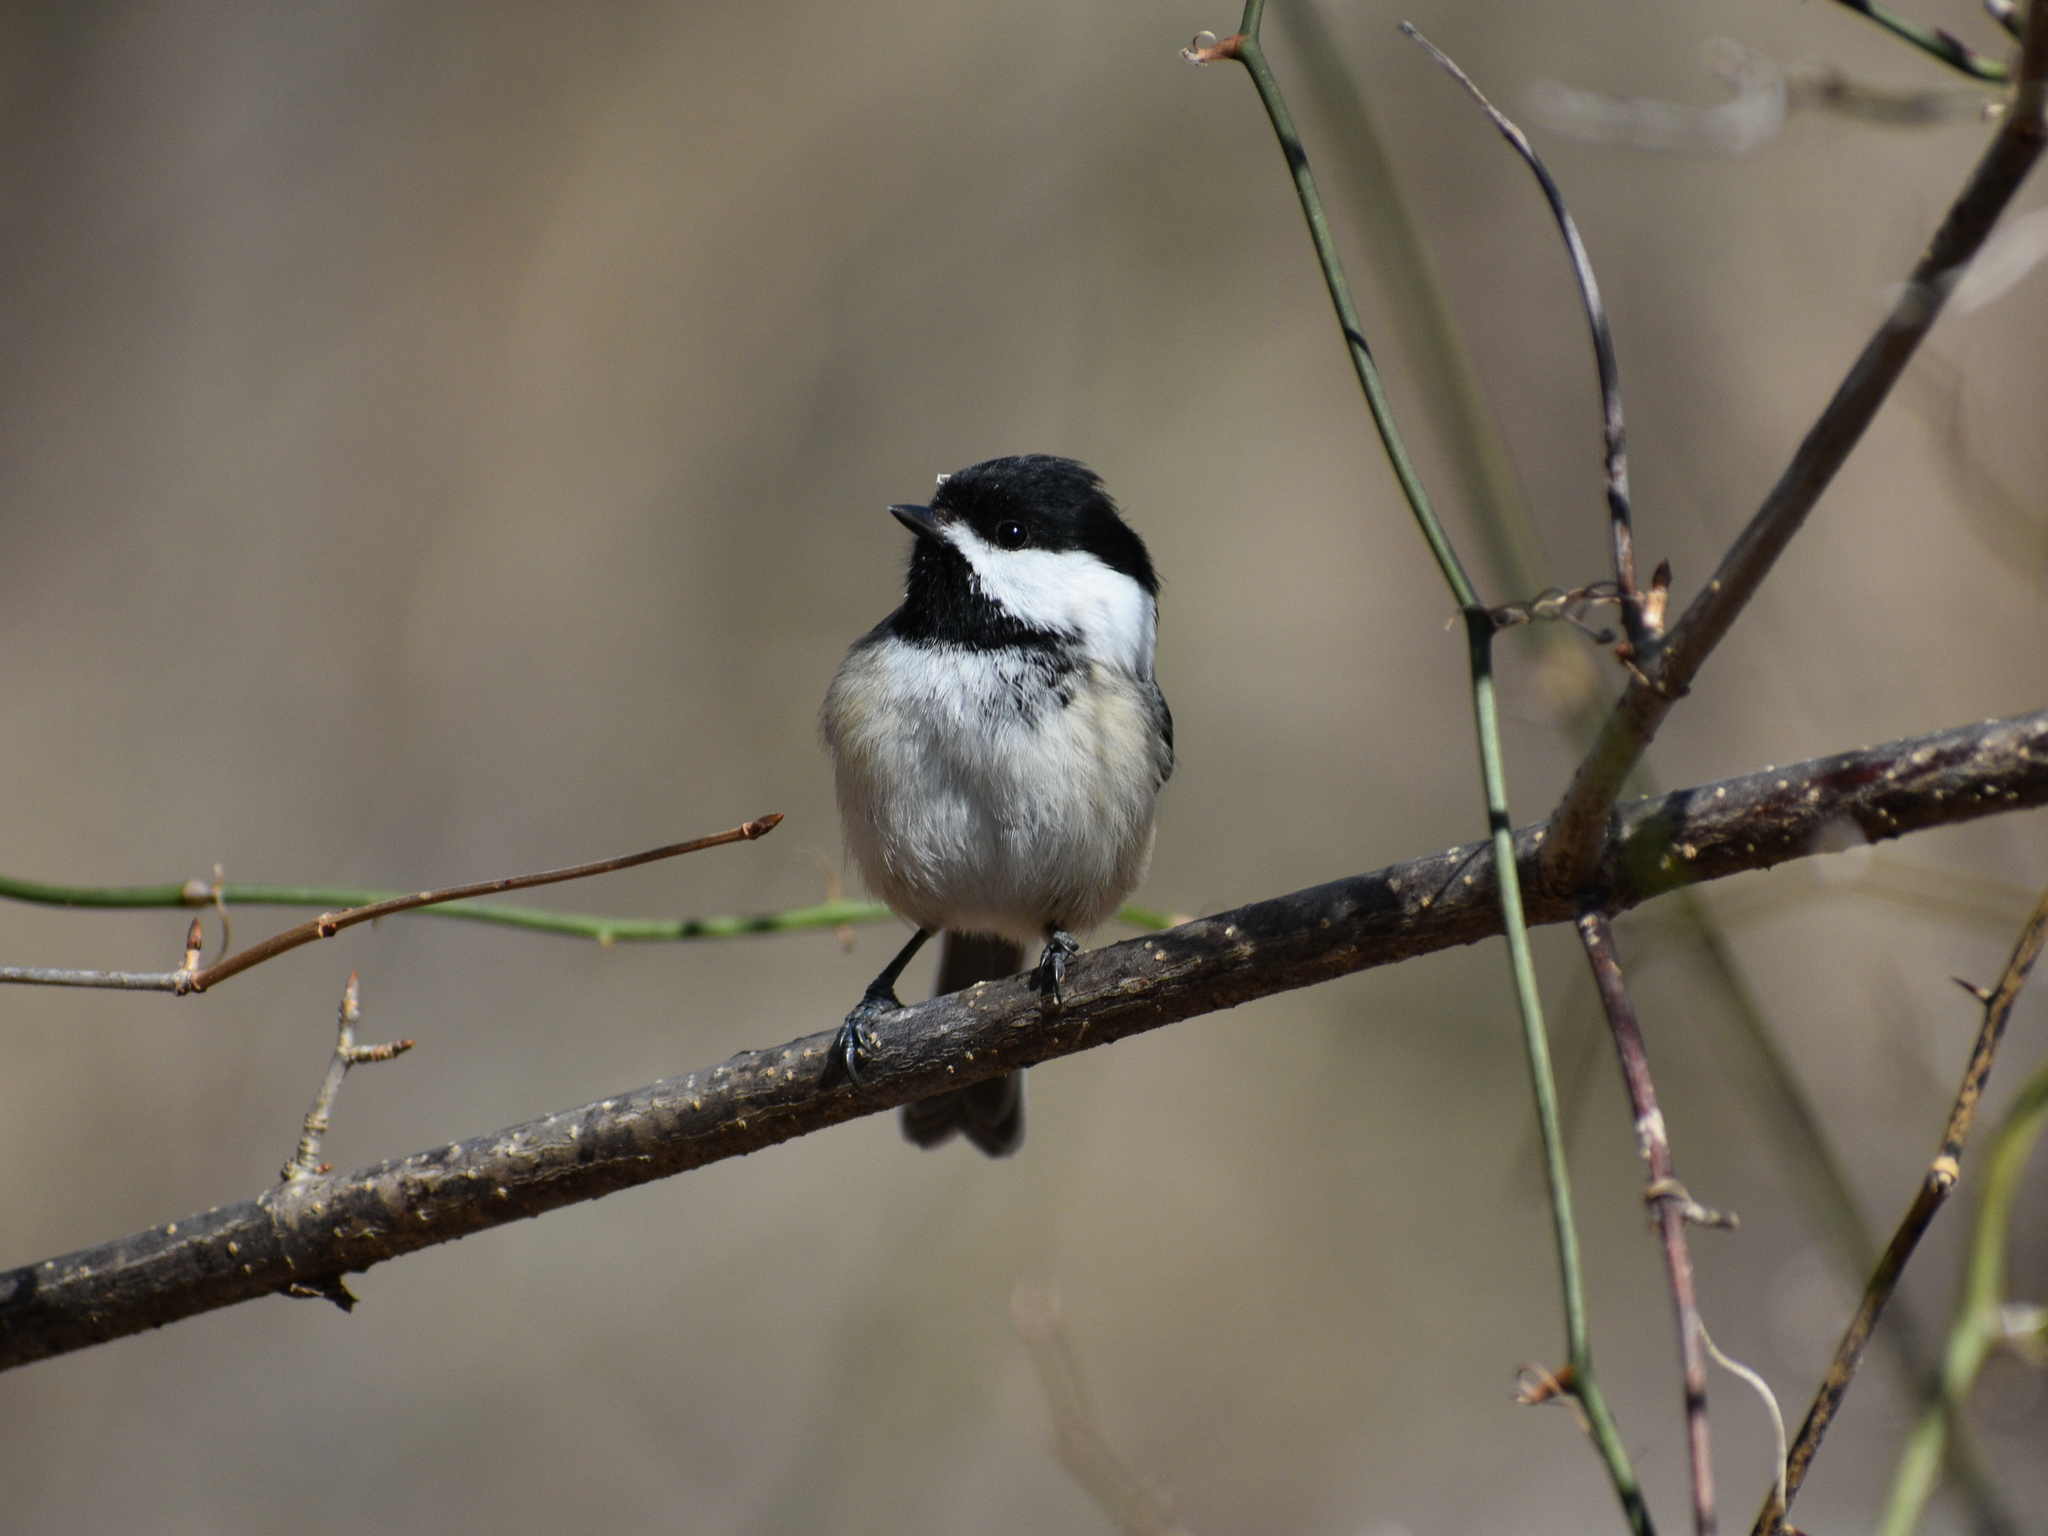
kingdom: Animalia
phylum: Chordata
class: Aves
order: Passeriformes
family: Paridae
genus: Poecile
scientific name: Poecile atricapillus
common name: Black-capped chickadee
